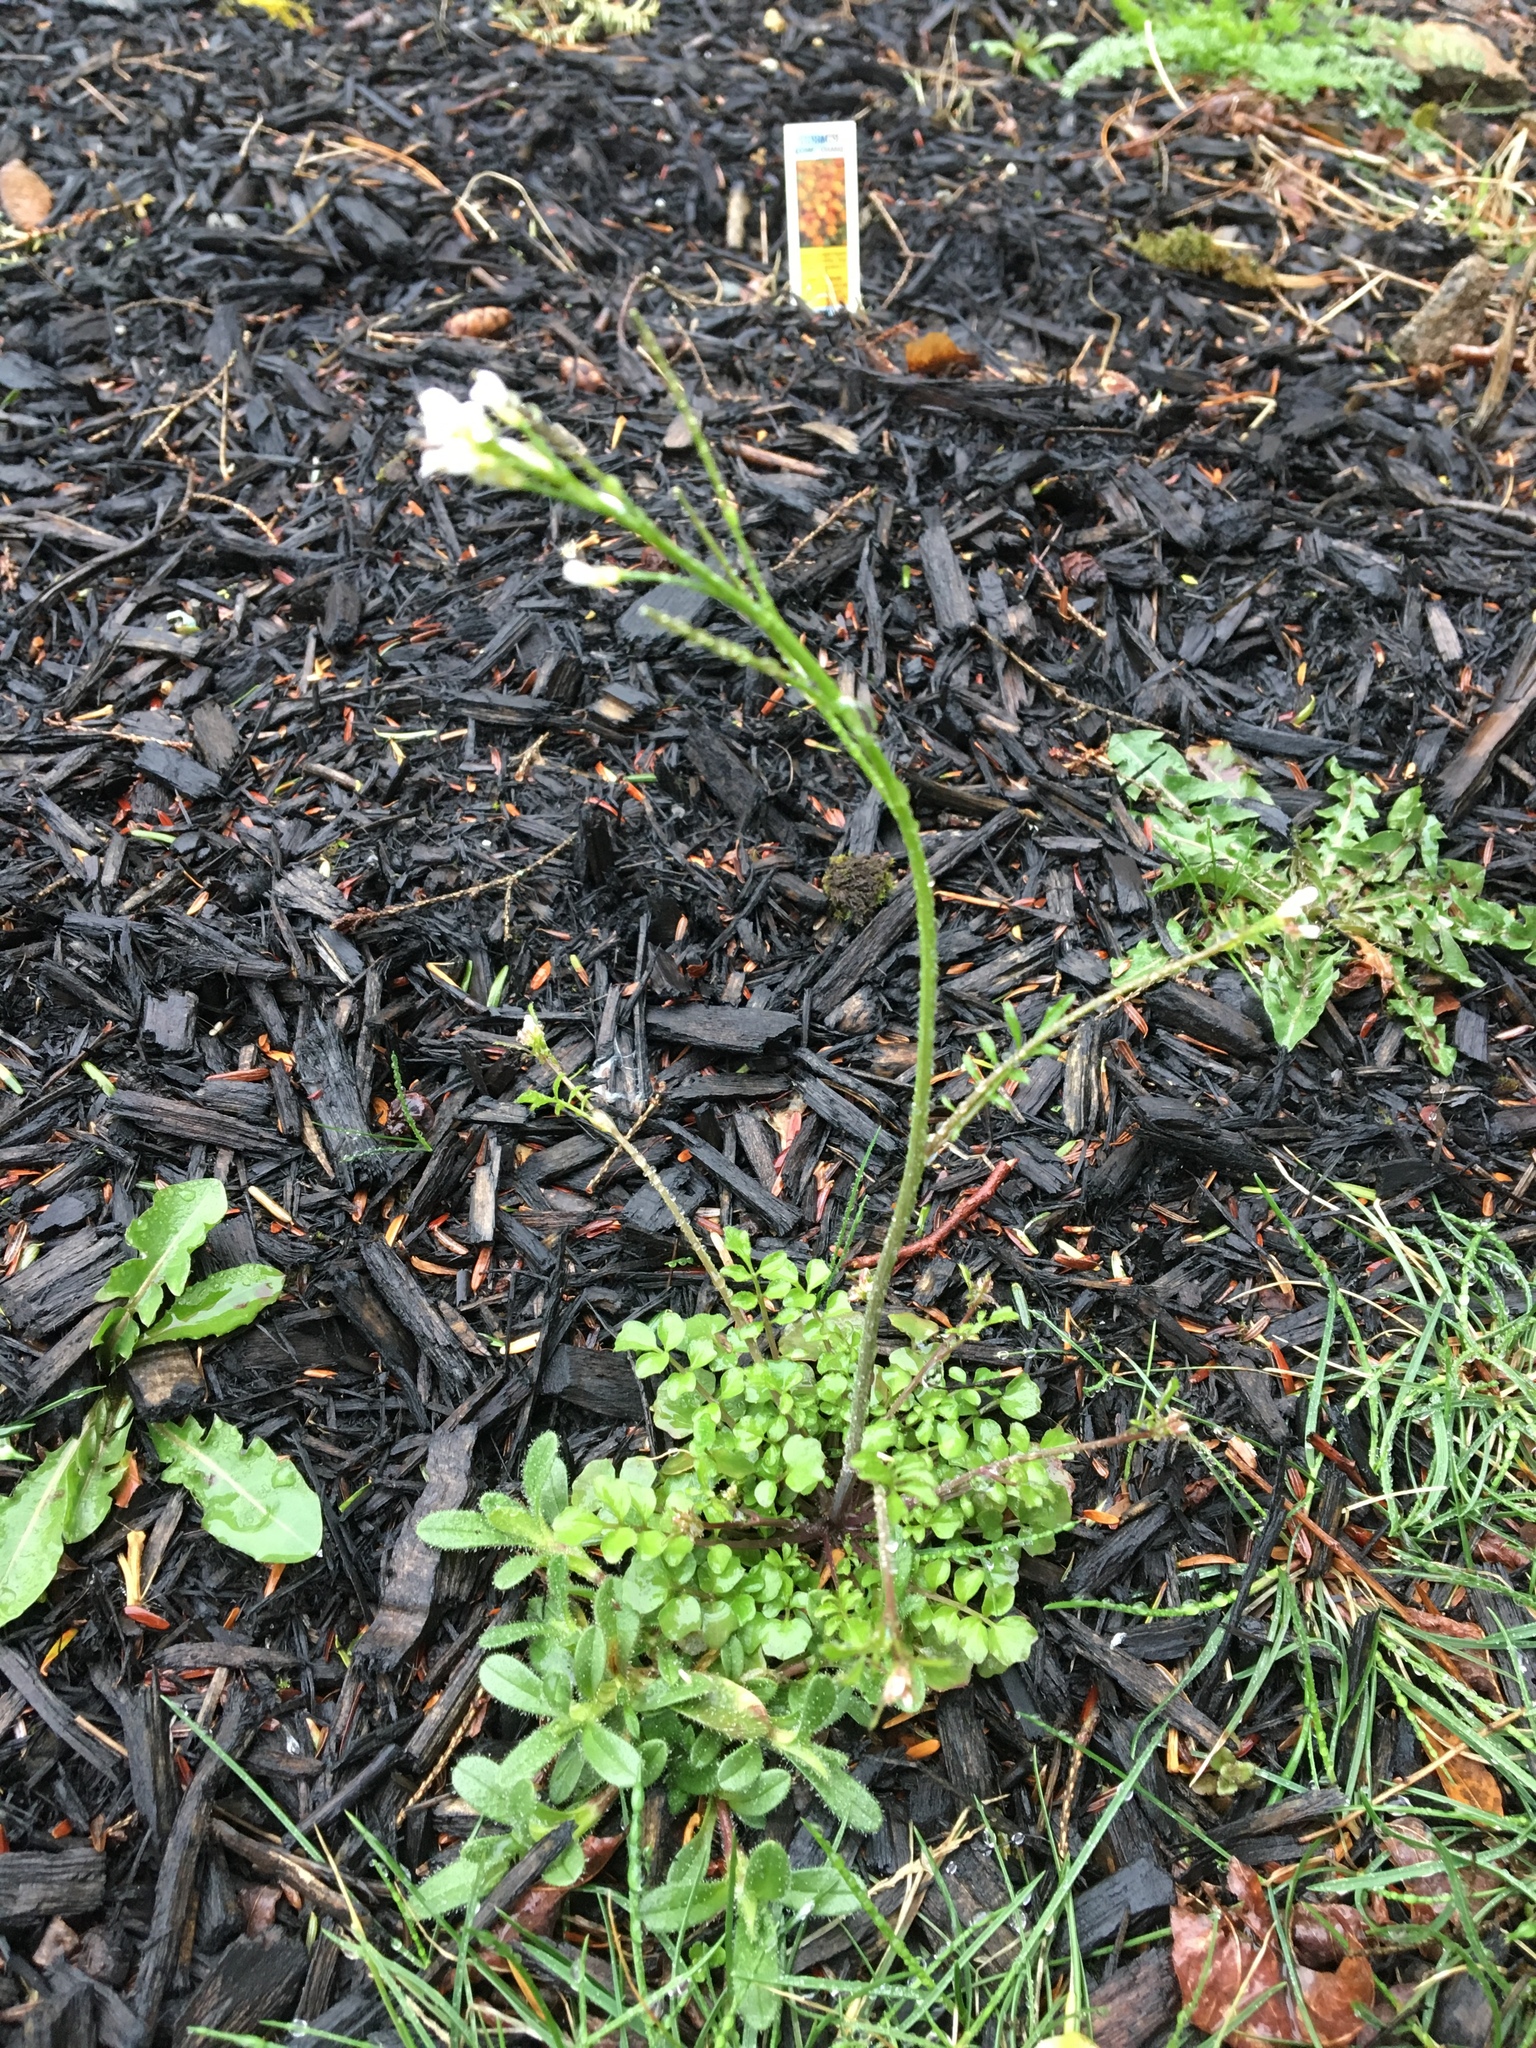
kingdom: Plantae
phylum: Tracheophyta
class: Magnoliopsida
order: Brassicales
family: Brassicaceae
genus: Cardamine
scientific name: Cardamine hirsuta
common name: Hairy bittercress
